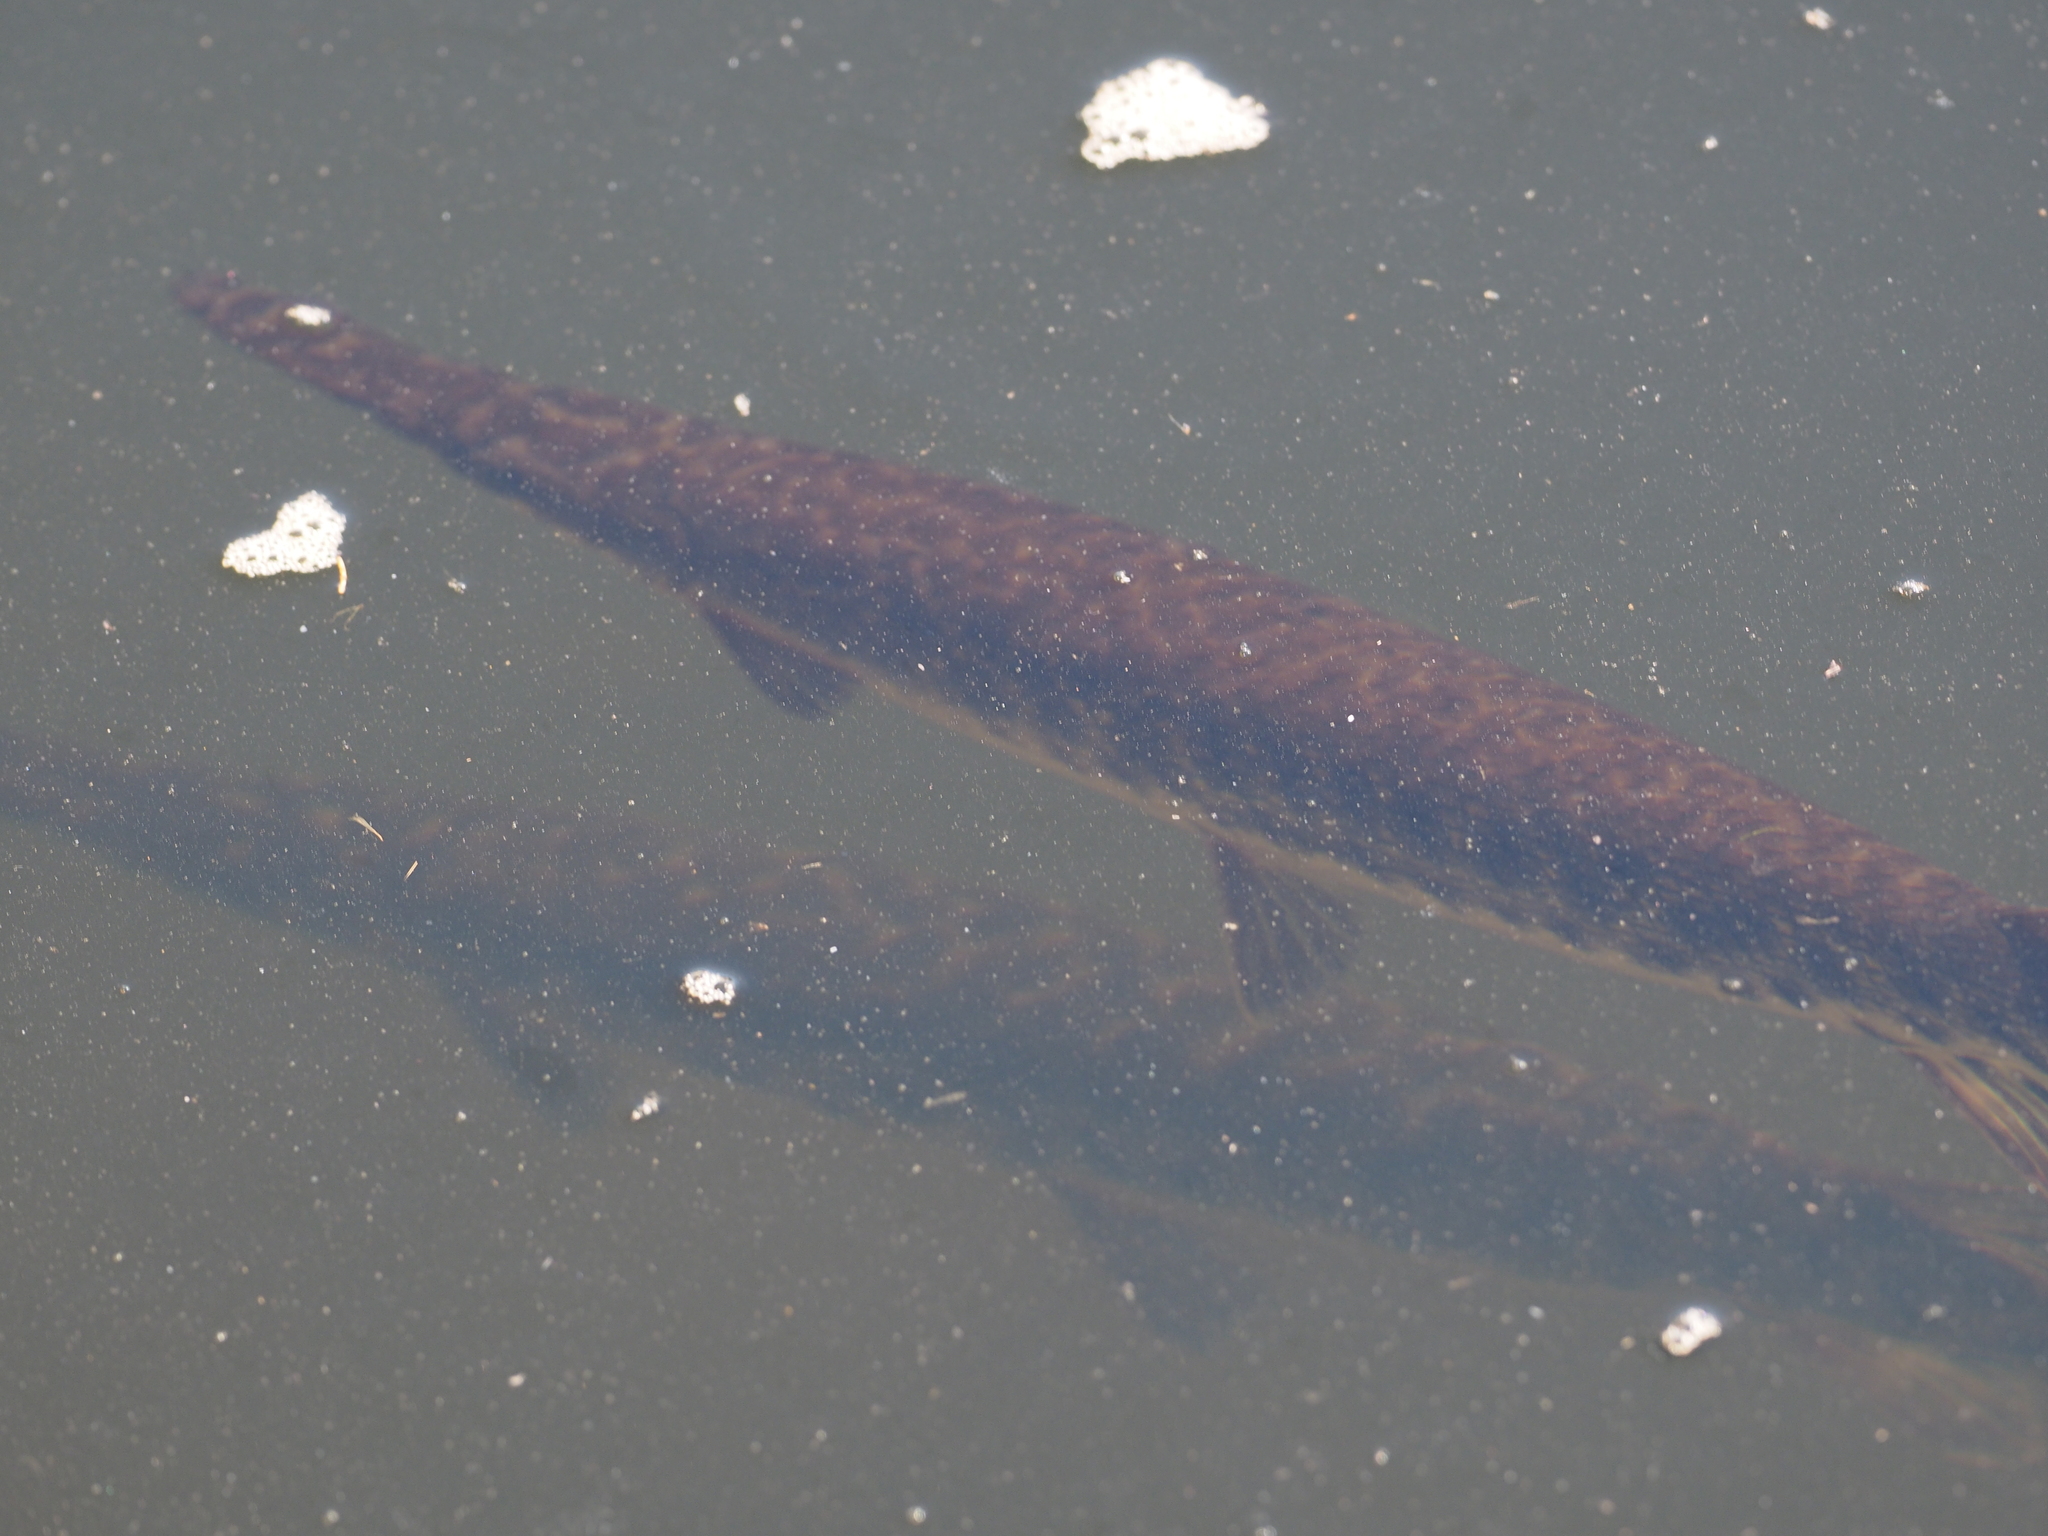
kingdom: Animalia
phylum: Chordata
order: Lepisosteiformes
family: Lepisosteidae
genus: Lepisosteus
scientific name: Lepisosteus platyrhincus
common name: Florida gar
